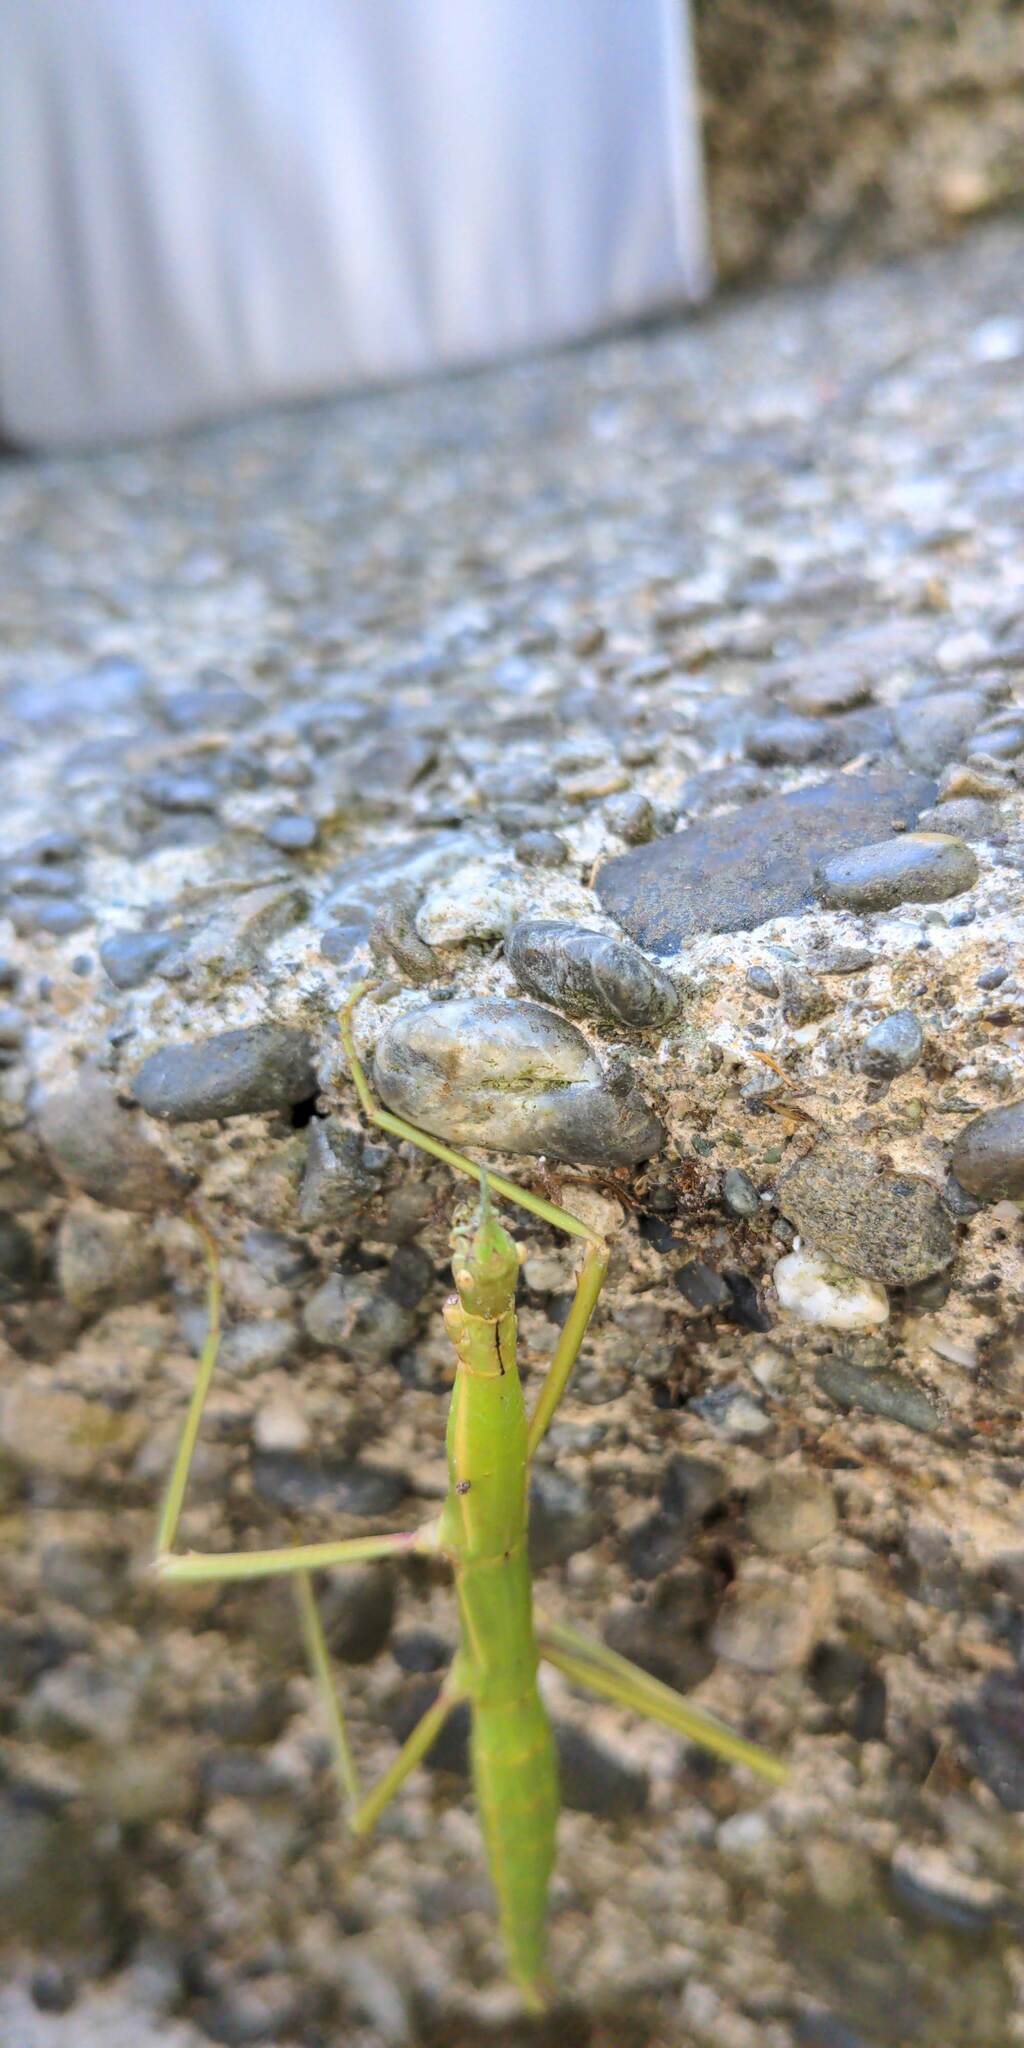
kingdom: Animalia
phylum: Arthropoda
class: Insecta
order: Phasmida
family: Phasmatidae
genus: Acanthoxyla
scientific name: Acanthoxyla inermis
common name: Unarmed stick insect
